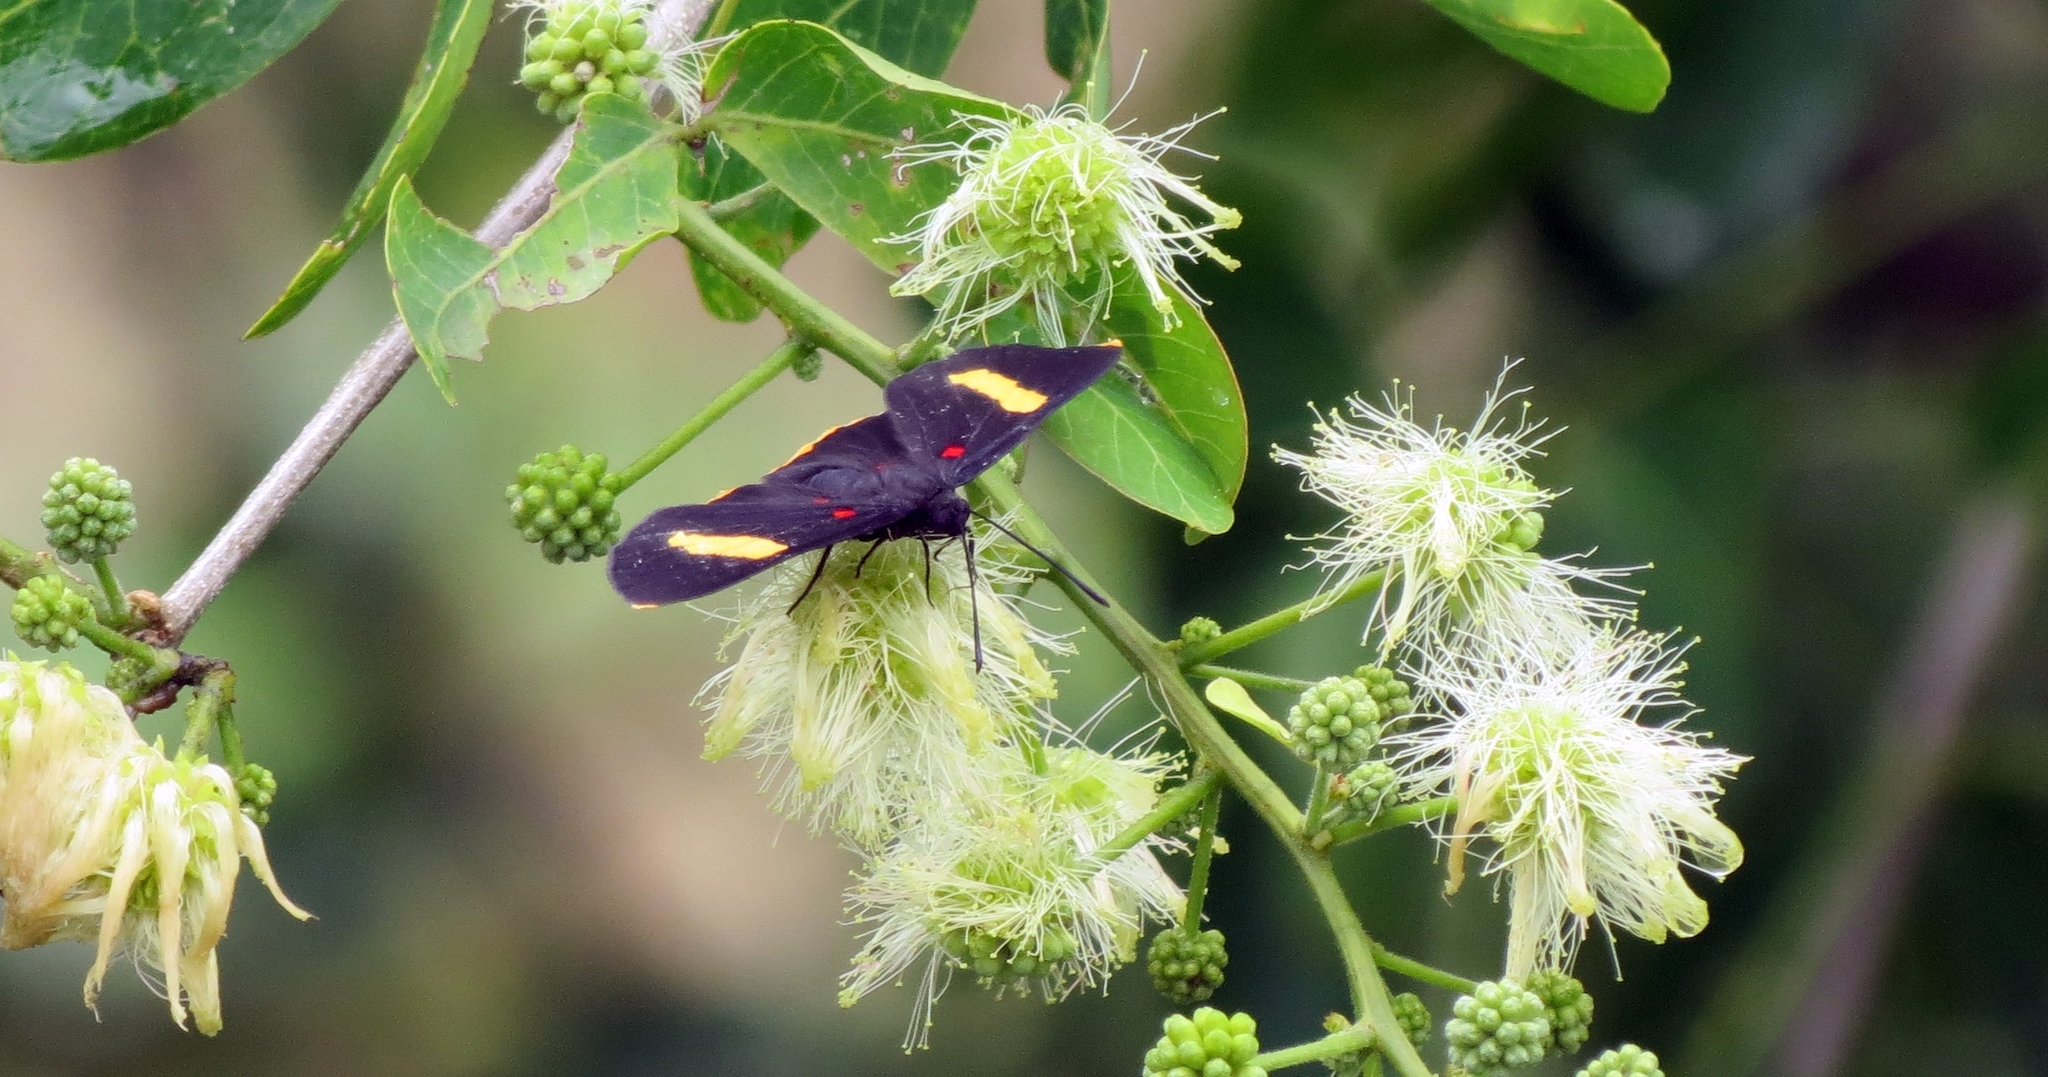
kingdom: Animalia
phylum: Arthropoda
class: Insecta
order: Lepidoptera
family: Lycaenidae
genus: Melanis
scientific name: Melanis electron
